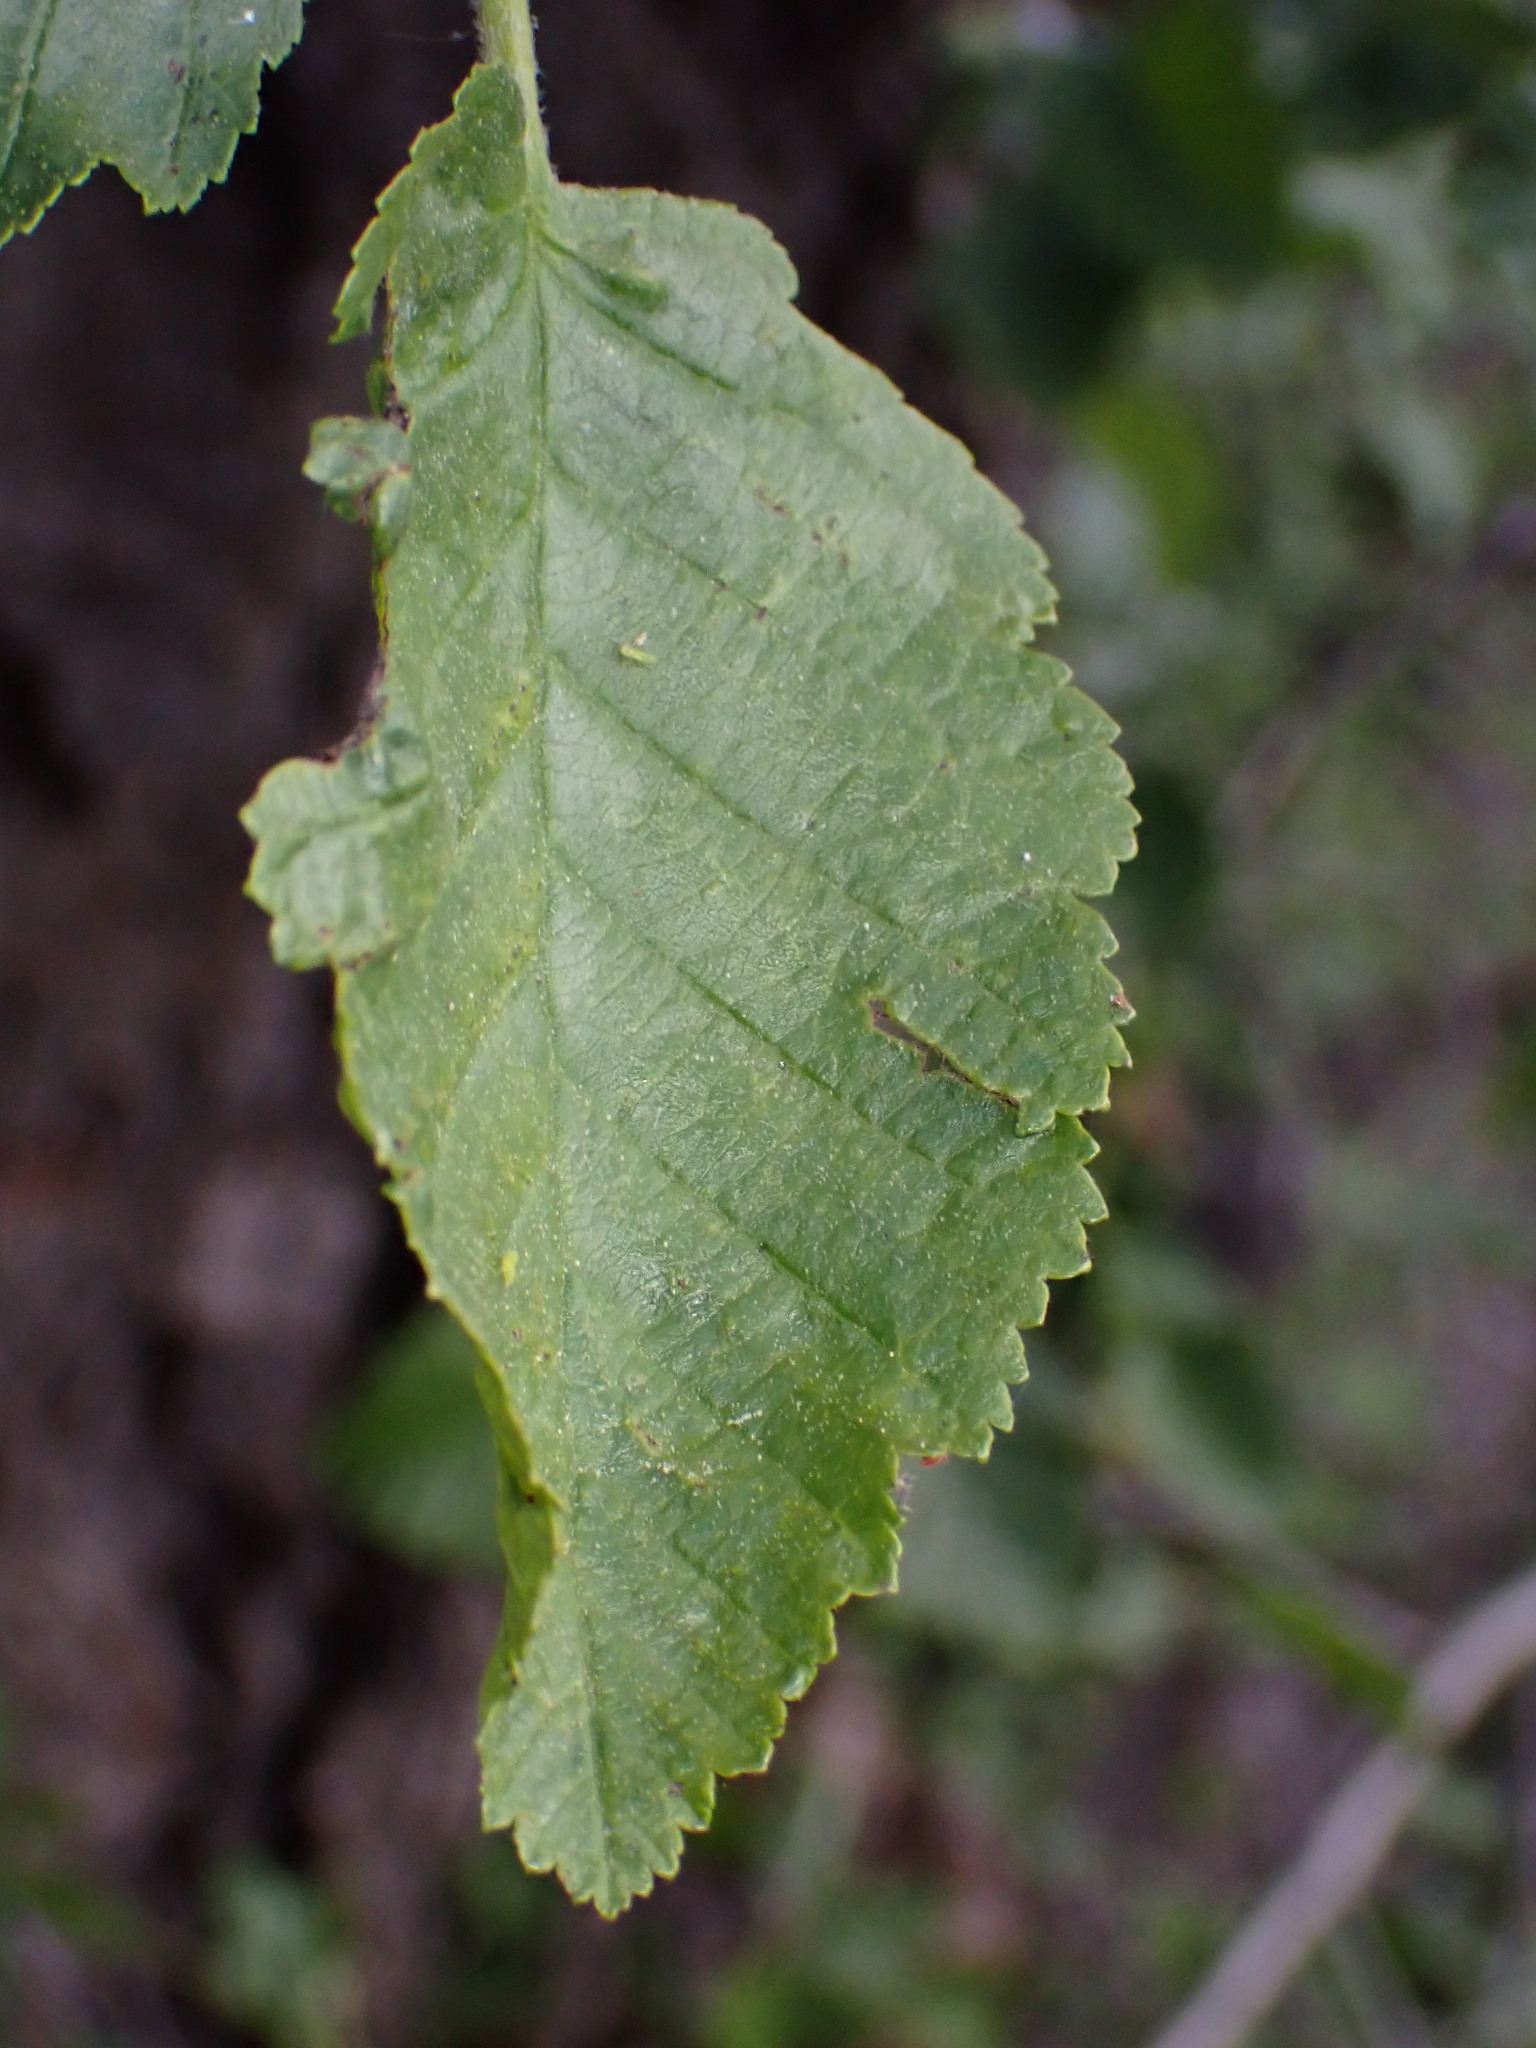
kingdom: Plantae
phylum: Tracheophyta
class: Magnoliopsida
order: Fagales
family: Betulaceae
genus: Alnus
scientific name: Alnus incana
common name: Grey alder
